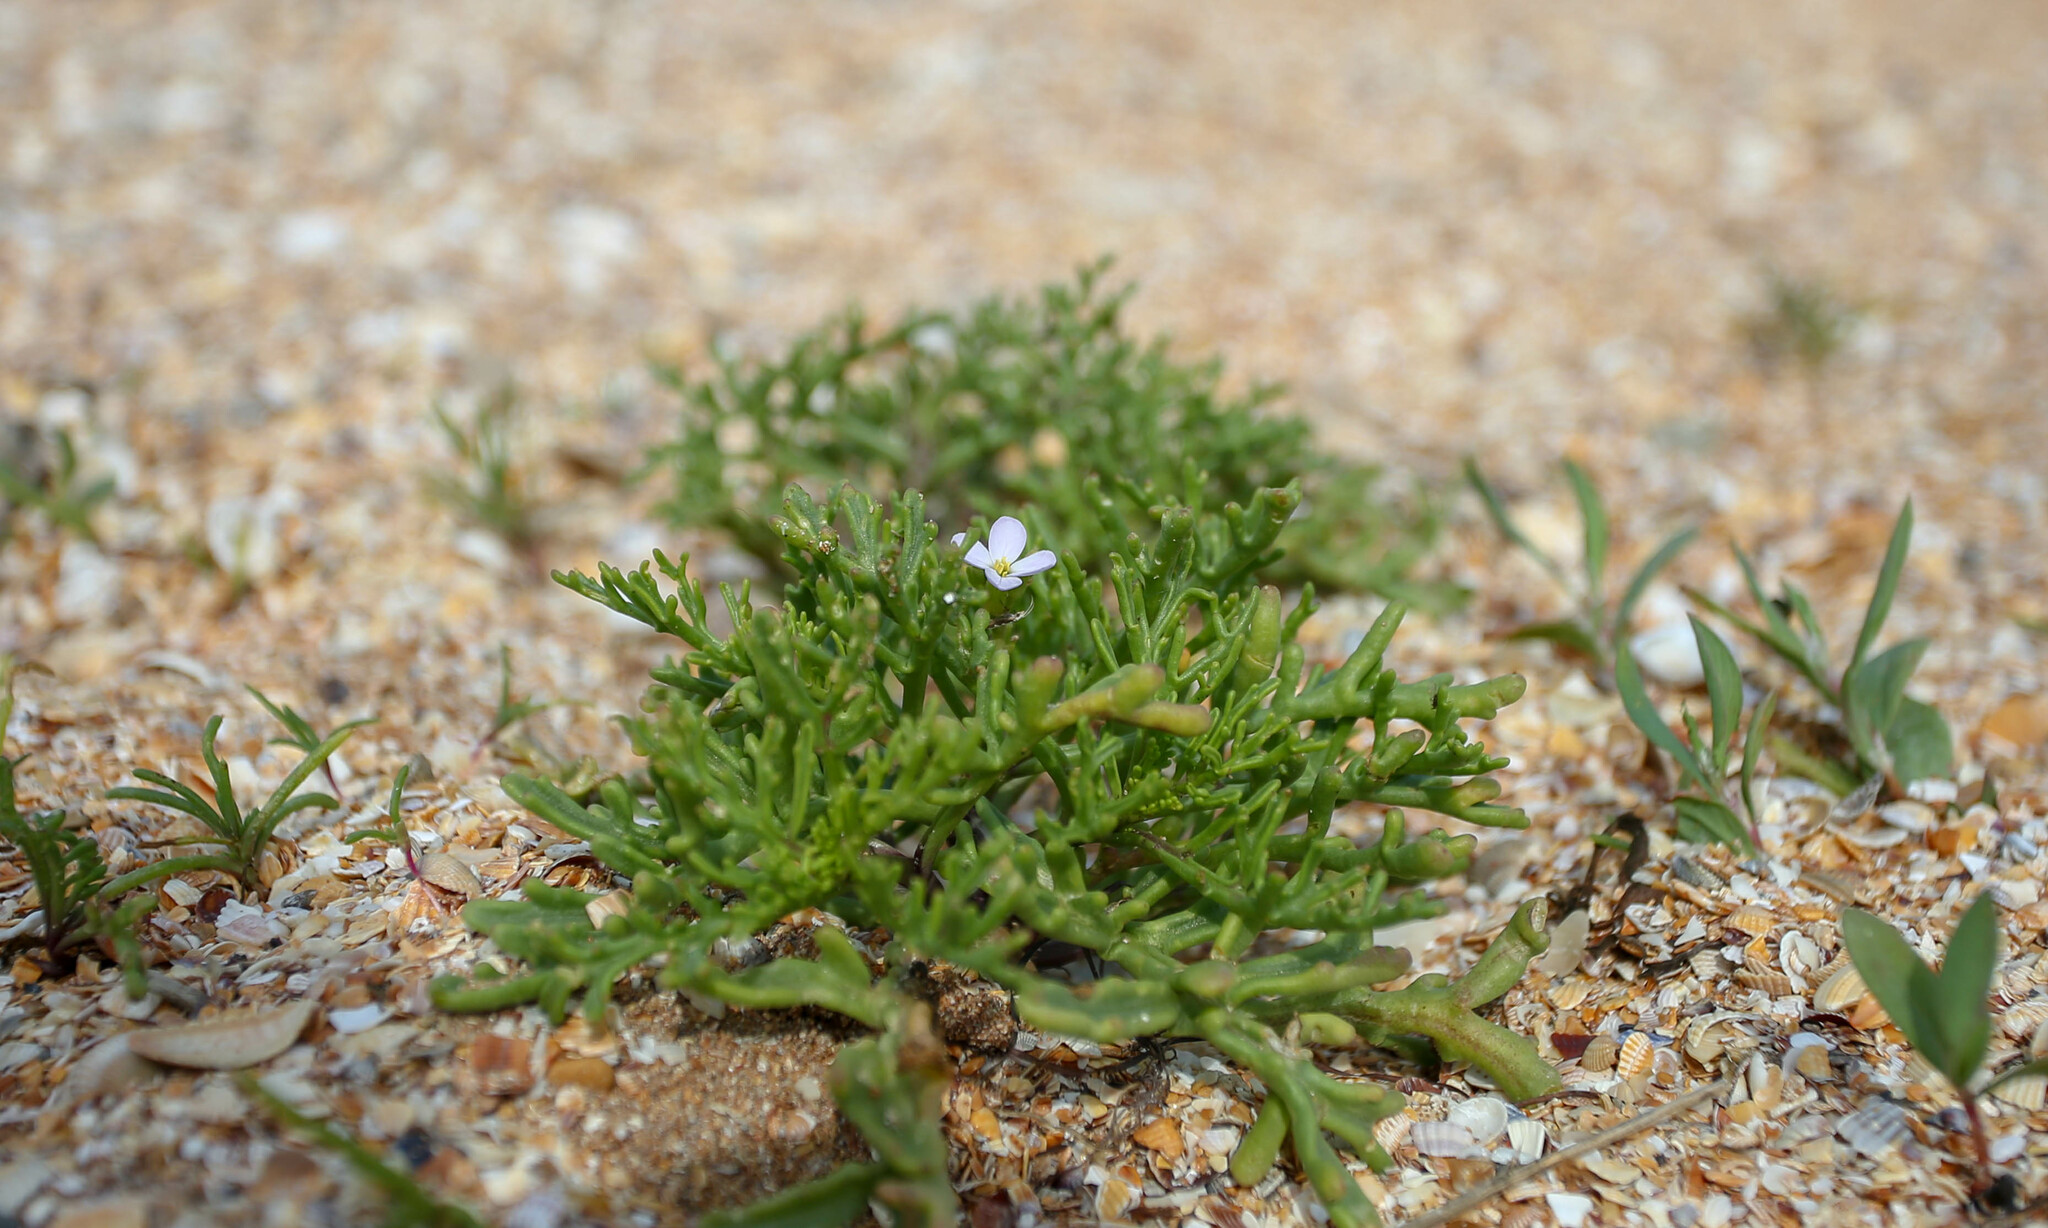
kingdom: Plantae
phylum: Tracheophyta
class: Magnoliopsida
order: Brassicales
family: Brassicaceae
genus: Cakile
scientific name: Cakile maritima
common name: Sea rocket
